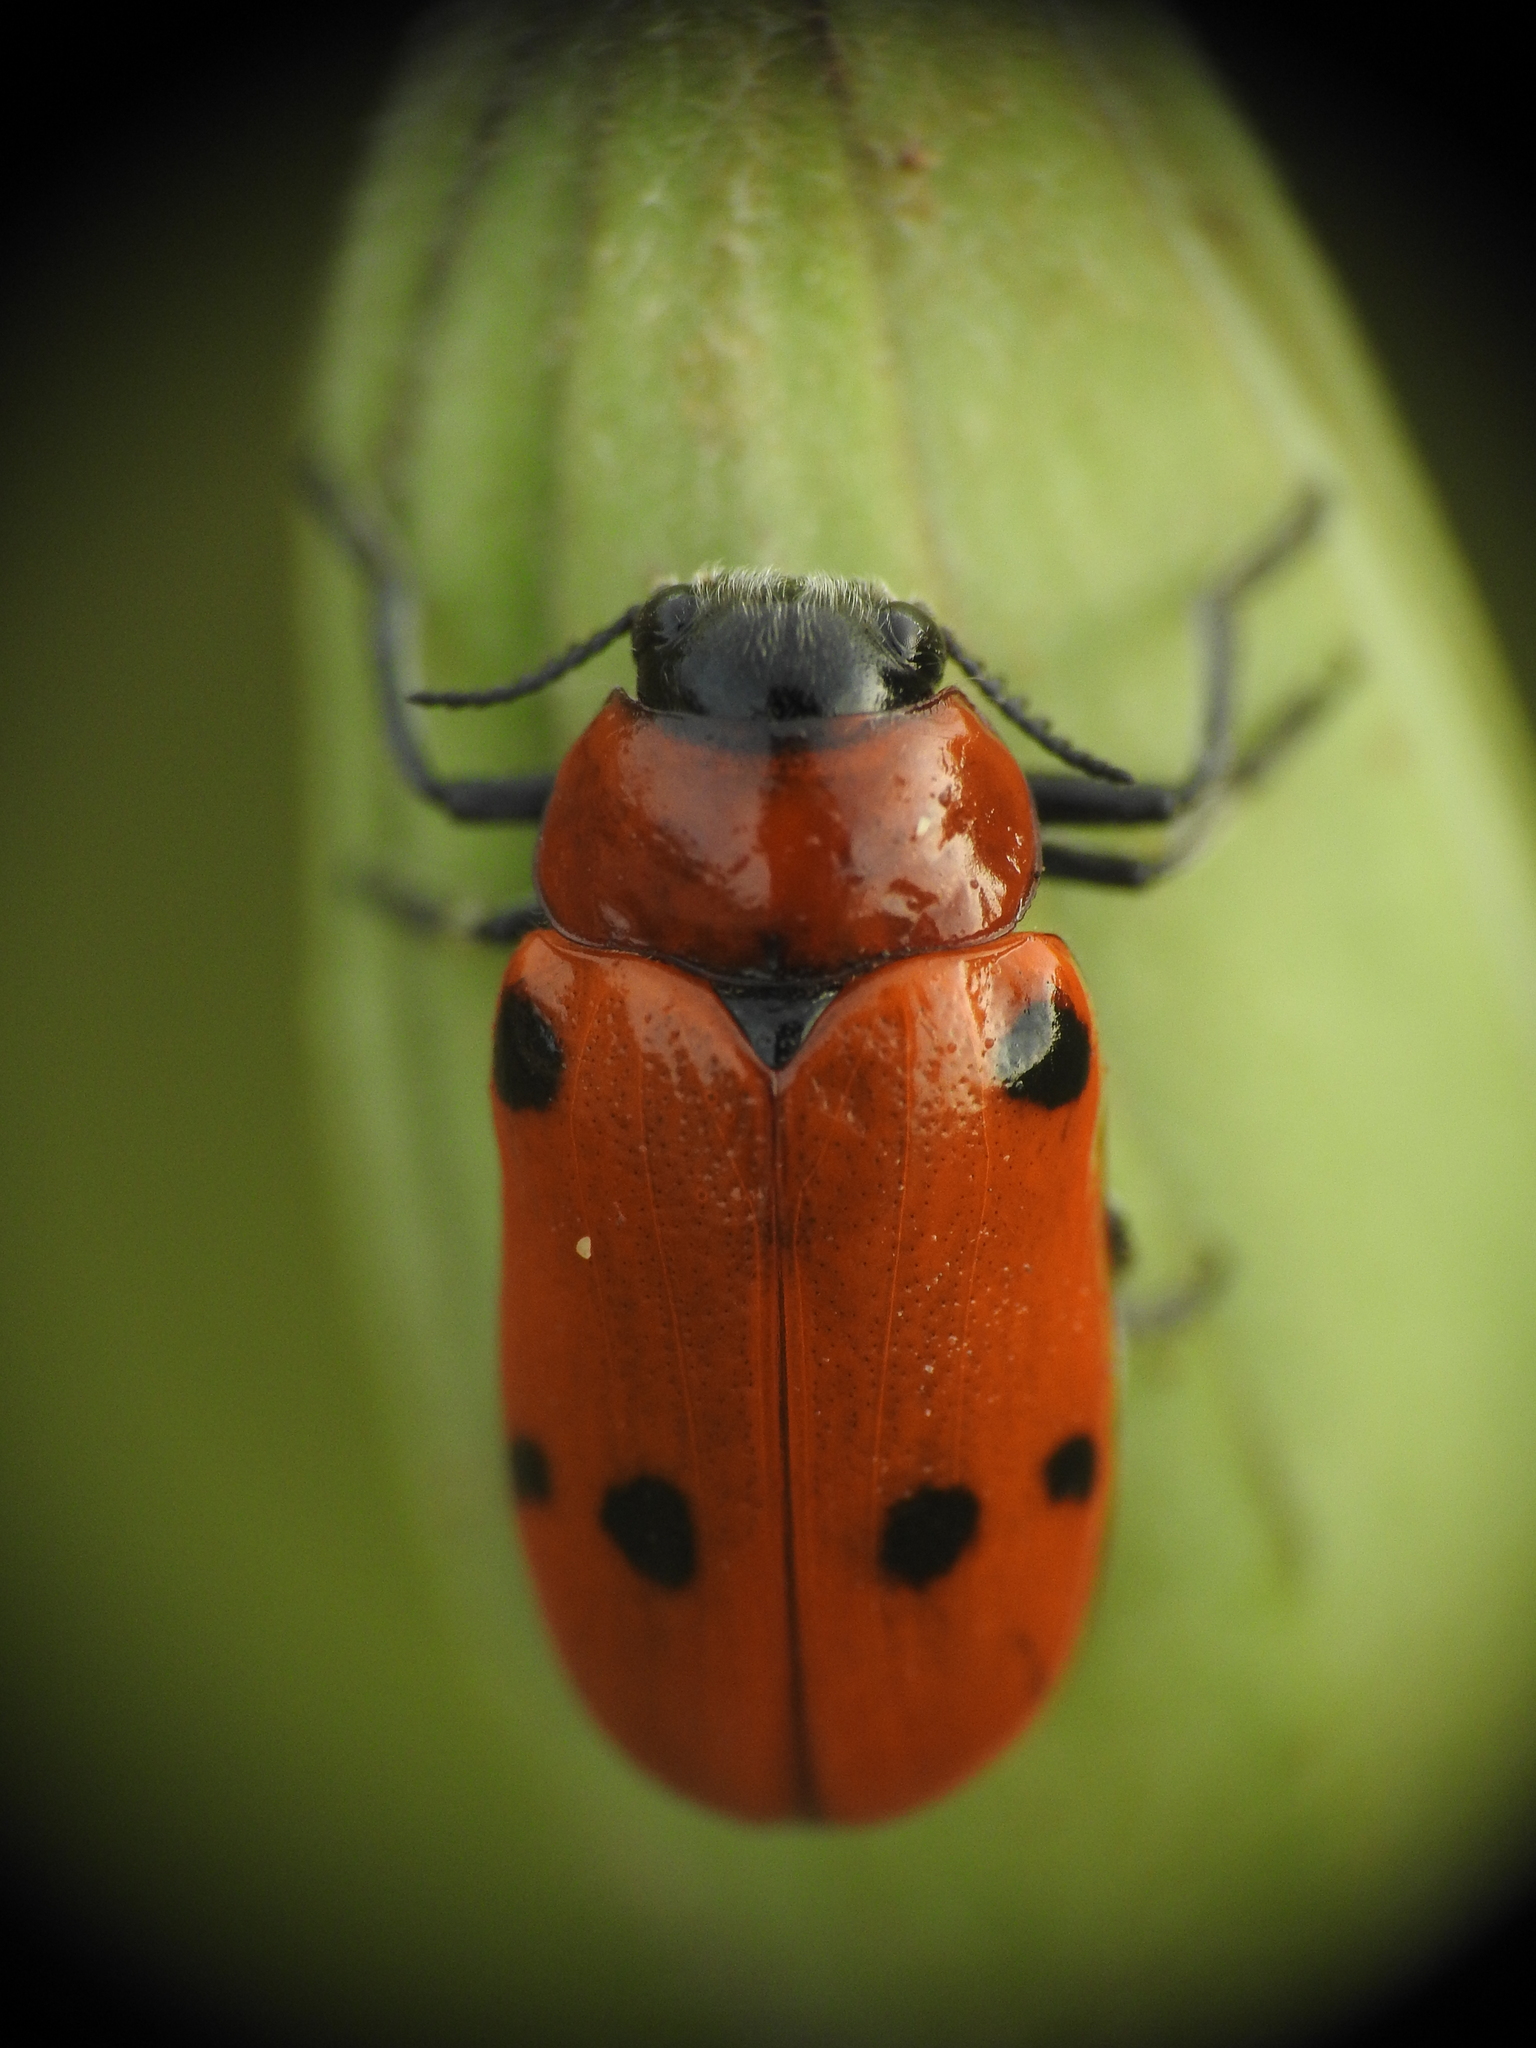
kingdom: Animalia
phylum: Arthropoda
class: Insecta
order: Coleoptera
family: Chrysomelidae
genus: Tituboea
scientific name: Tituboea sexmaculata
